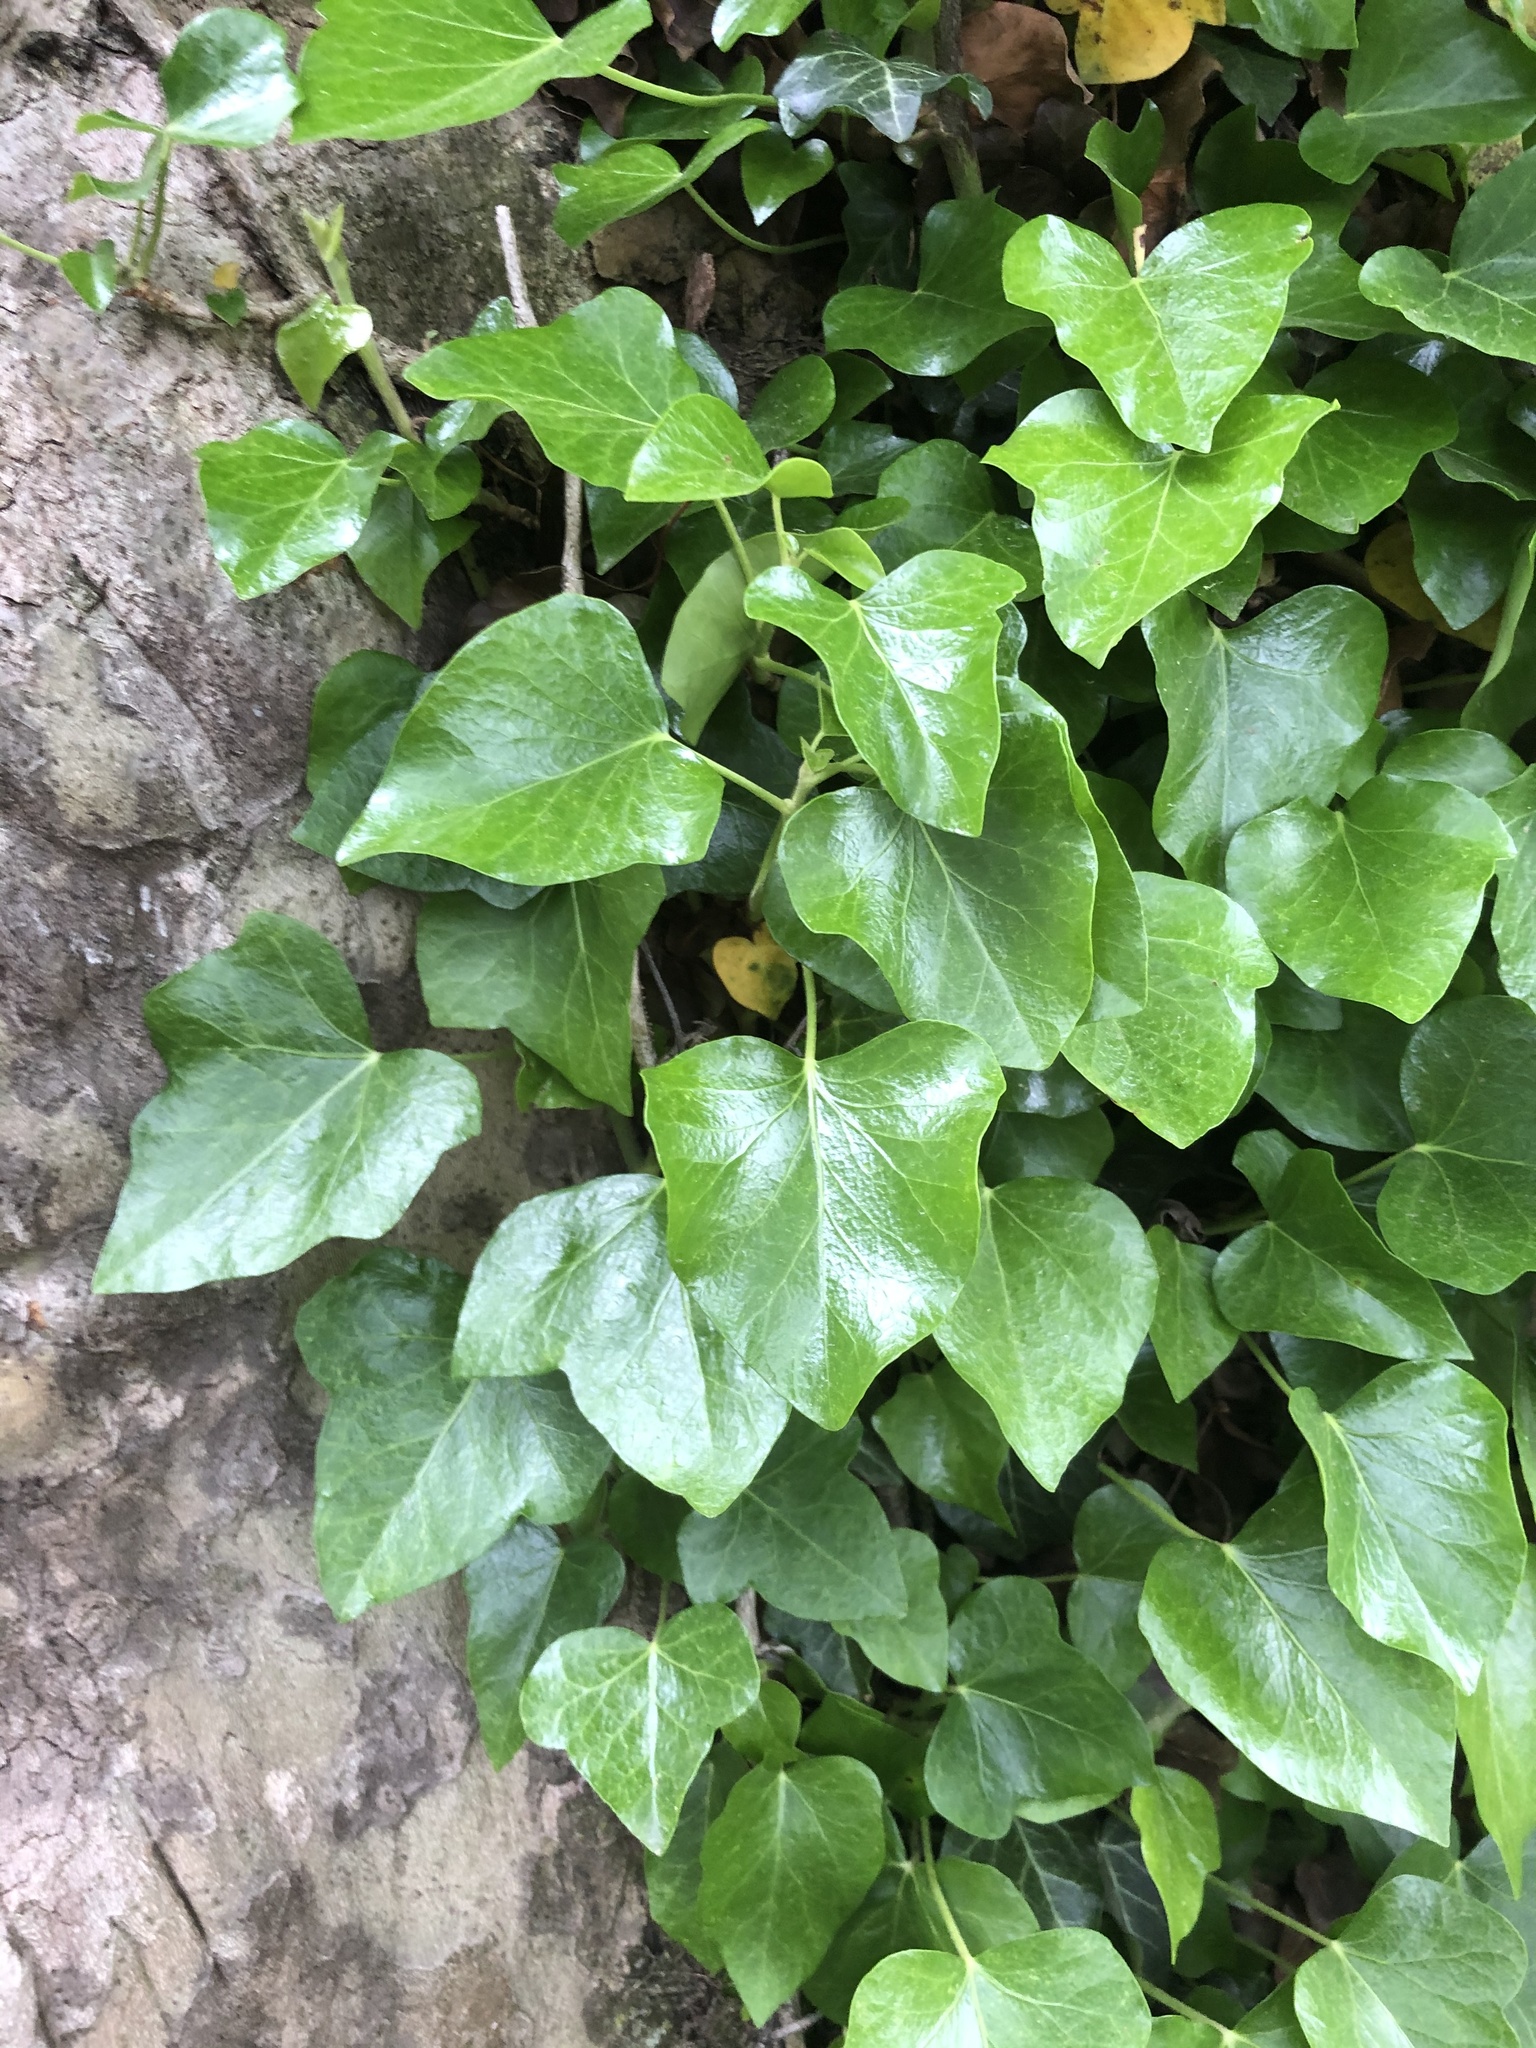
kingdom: Plantae
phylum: Tracheophyta
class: Magnoliopsida
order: Apiales
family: Araliaceae
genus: Hedera
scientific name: Hedera helix
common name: Ivy
